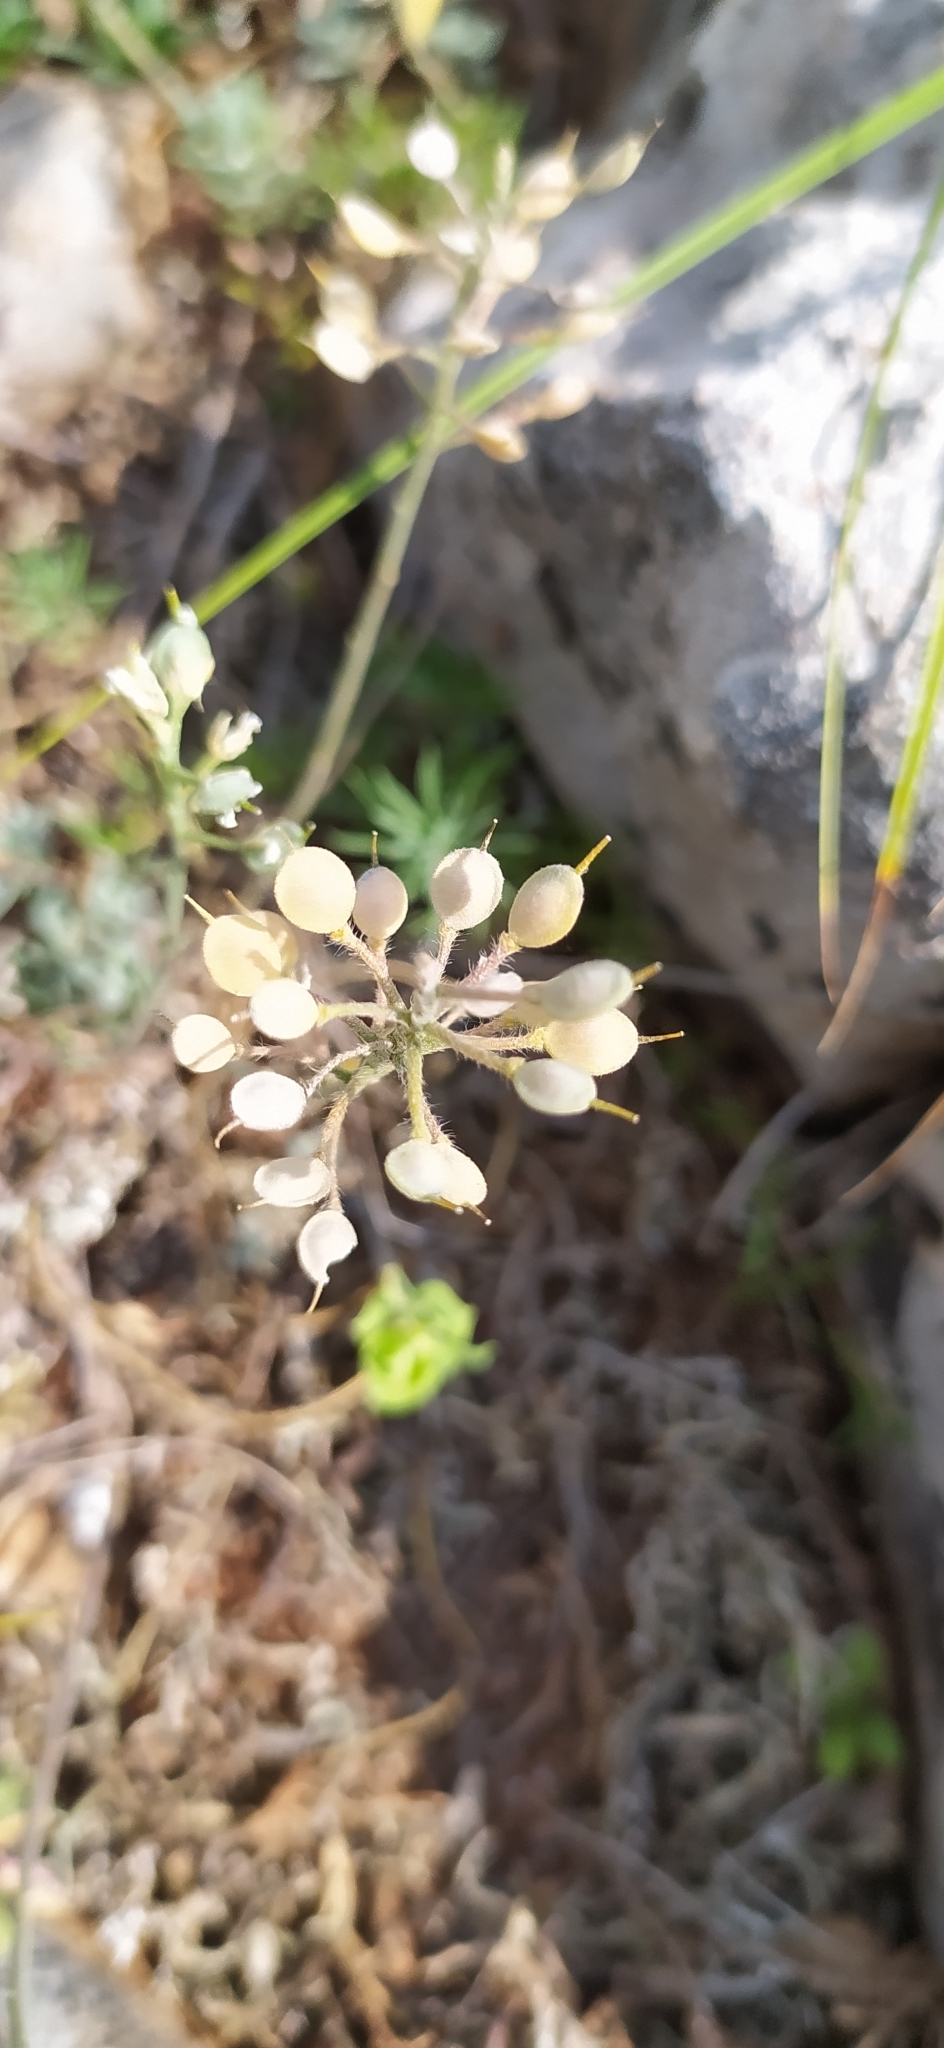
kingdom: Plantae
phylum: Tracheophyta
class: Magnoliopsida
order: Brassicales
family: Brassicaceae
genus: Alyssum
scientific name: Alyssum calycocarpum
